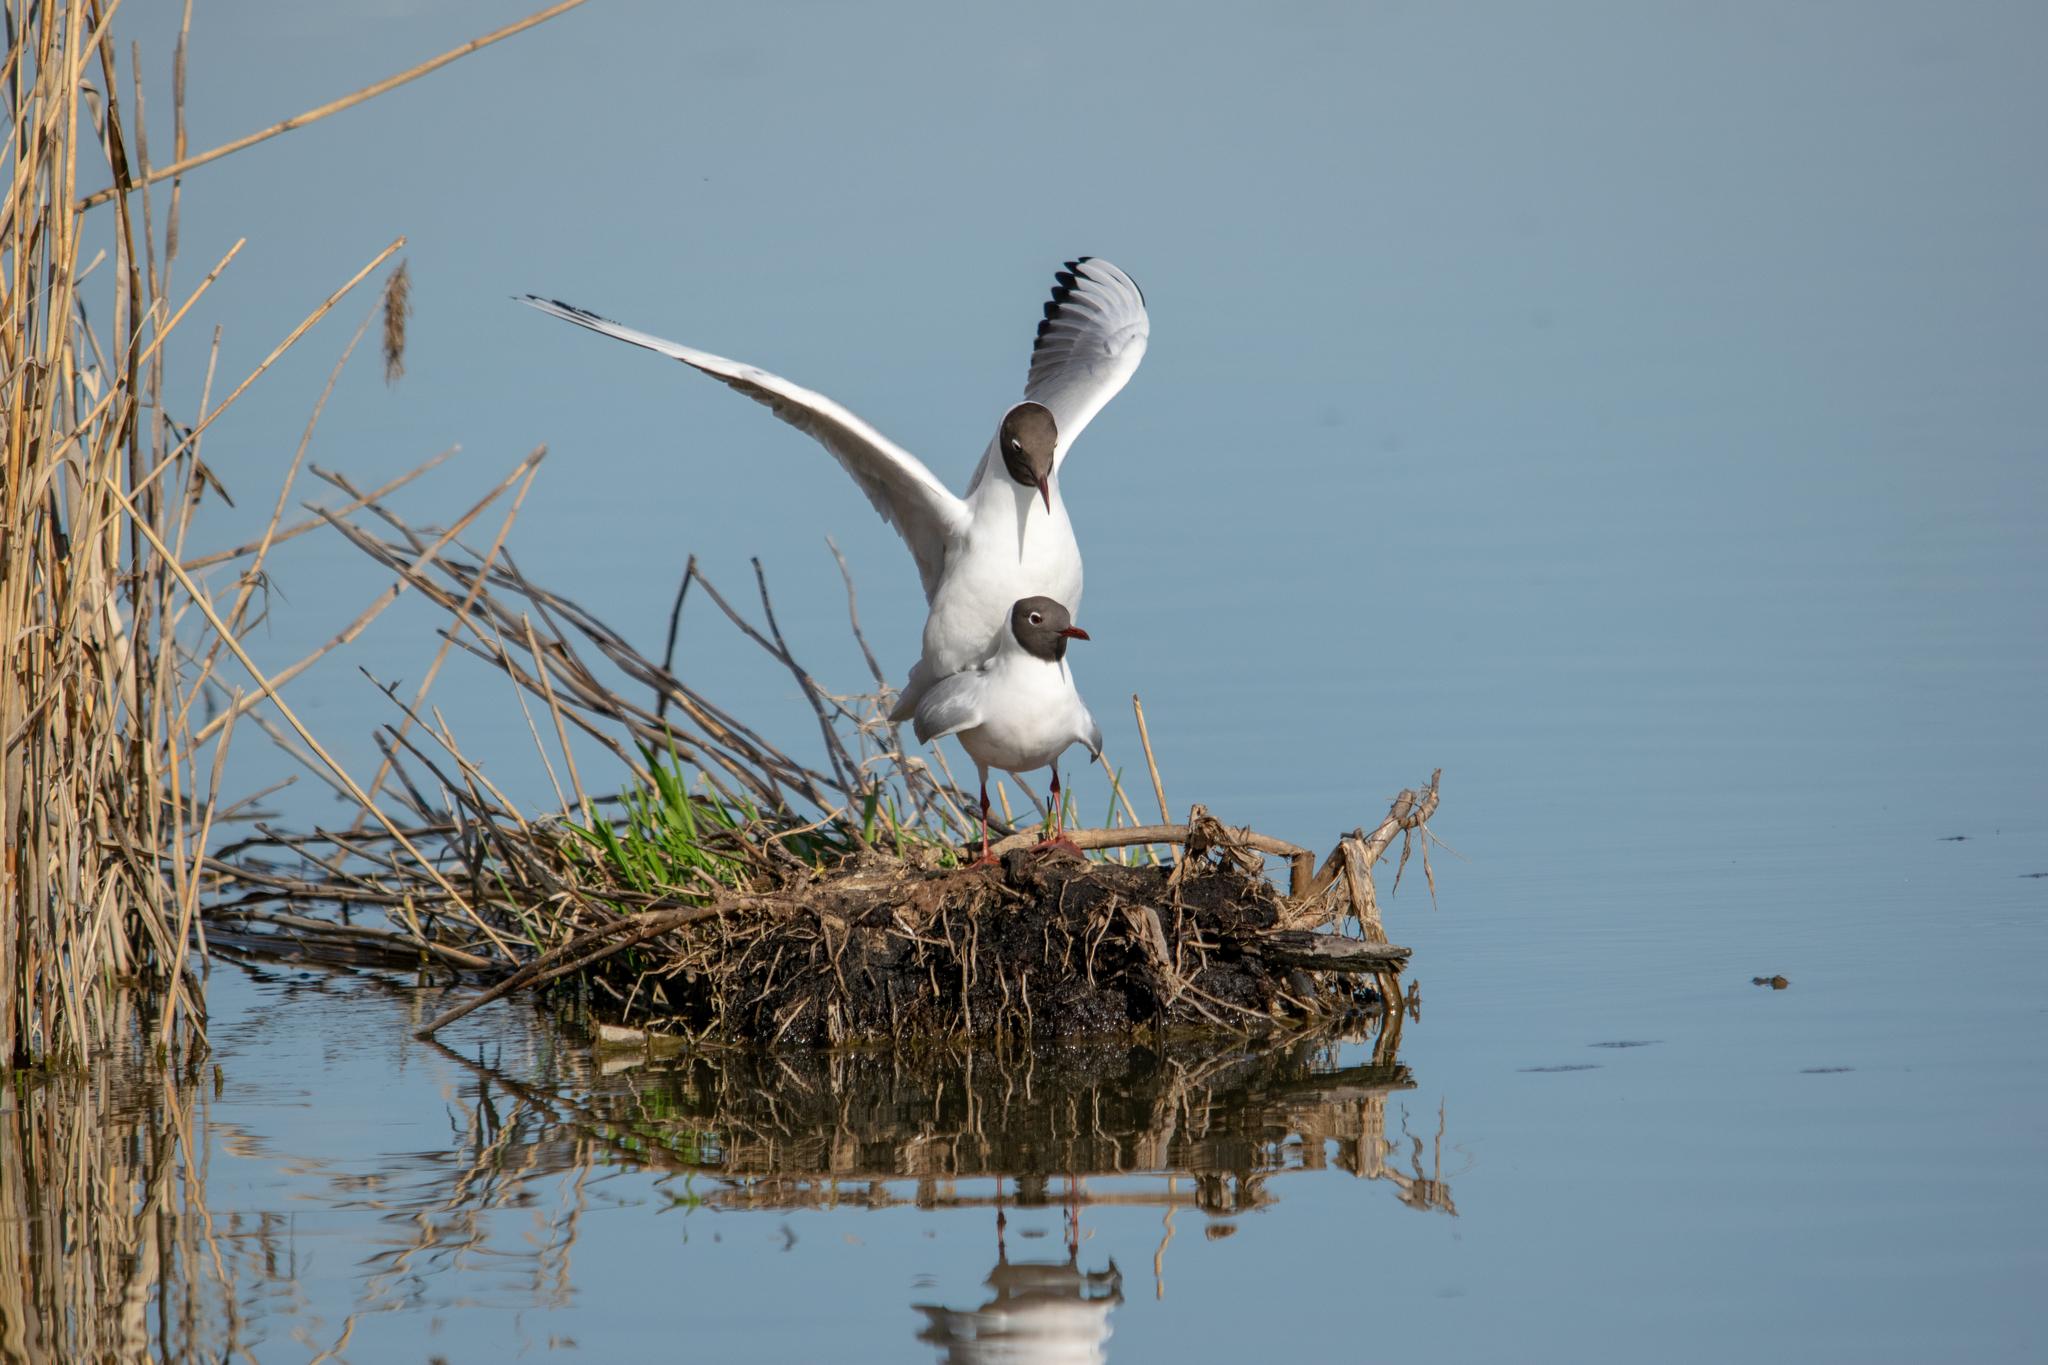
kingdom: Animalia
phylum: Chordata
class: Aves
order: Charadriiformes
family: Laridae
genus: Chroicocephalus
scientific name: Chroicocephalus ridibundus
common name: Black-headed gull
